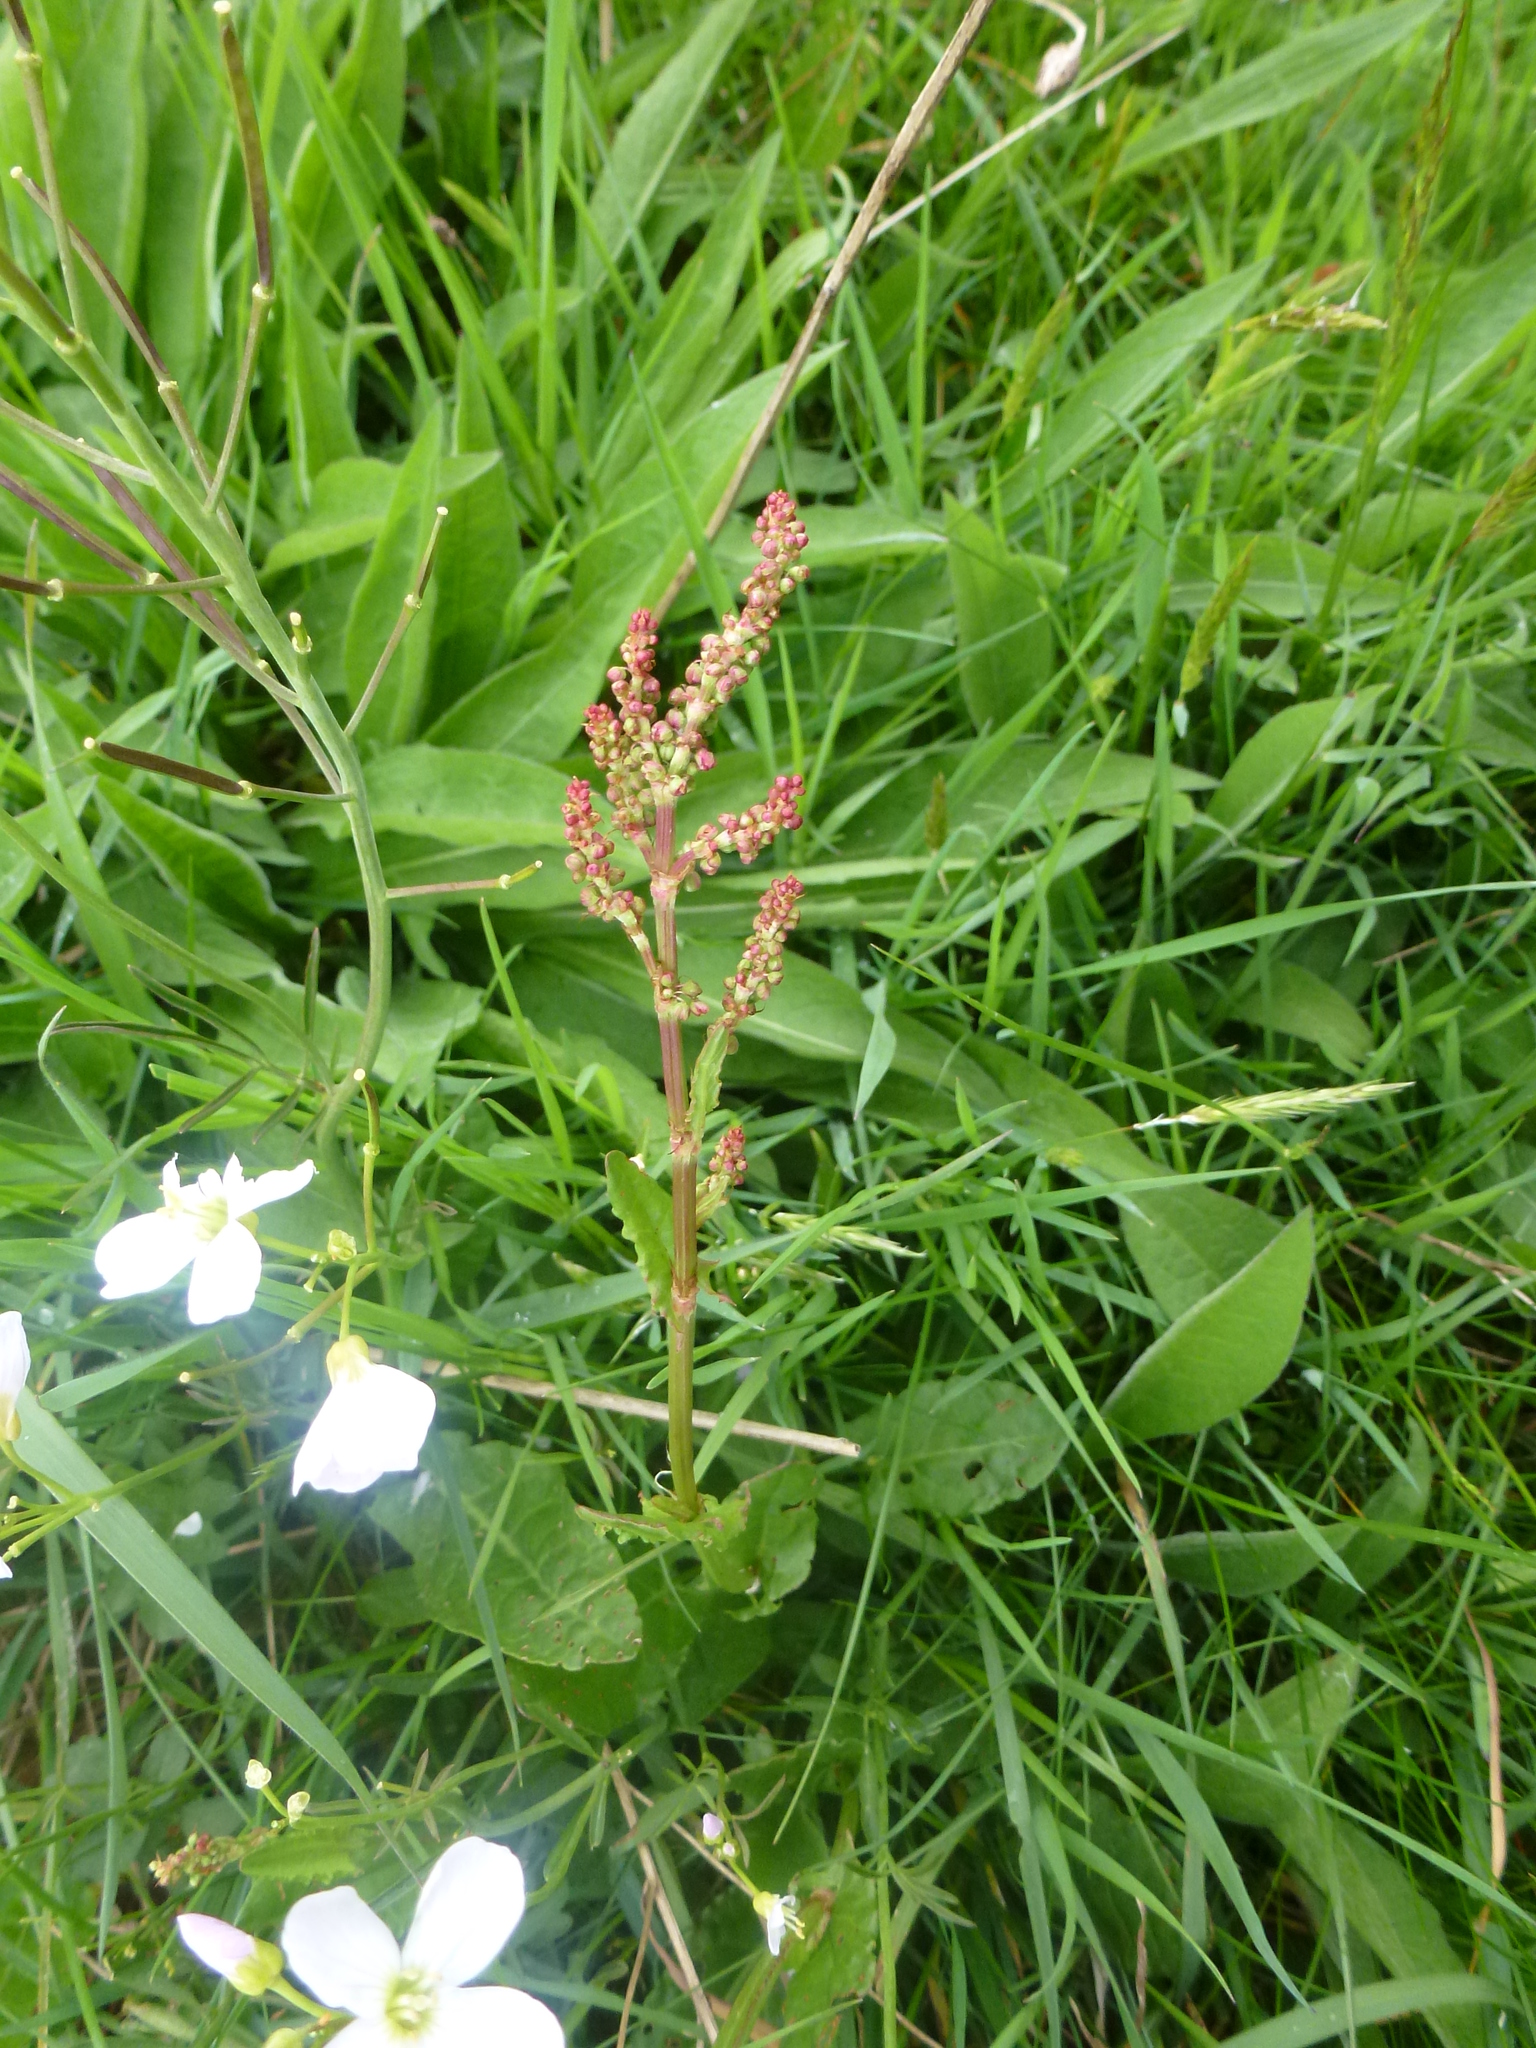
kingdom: Plantae
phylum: Tracheophyta
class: Magnoliopsida
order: Caryophyllales
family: Polygonaceae
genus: Rumex
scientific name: Rumex acetosa
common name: Garden sorrel
